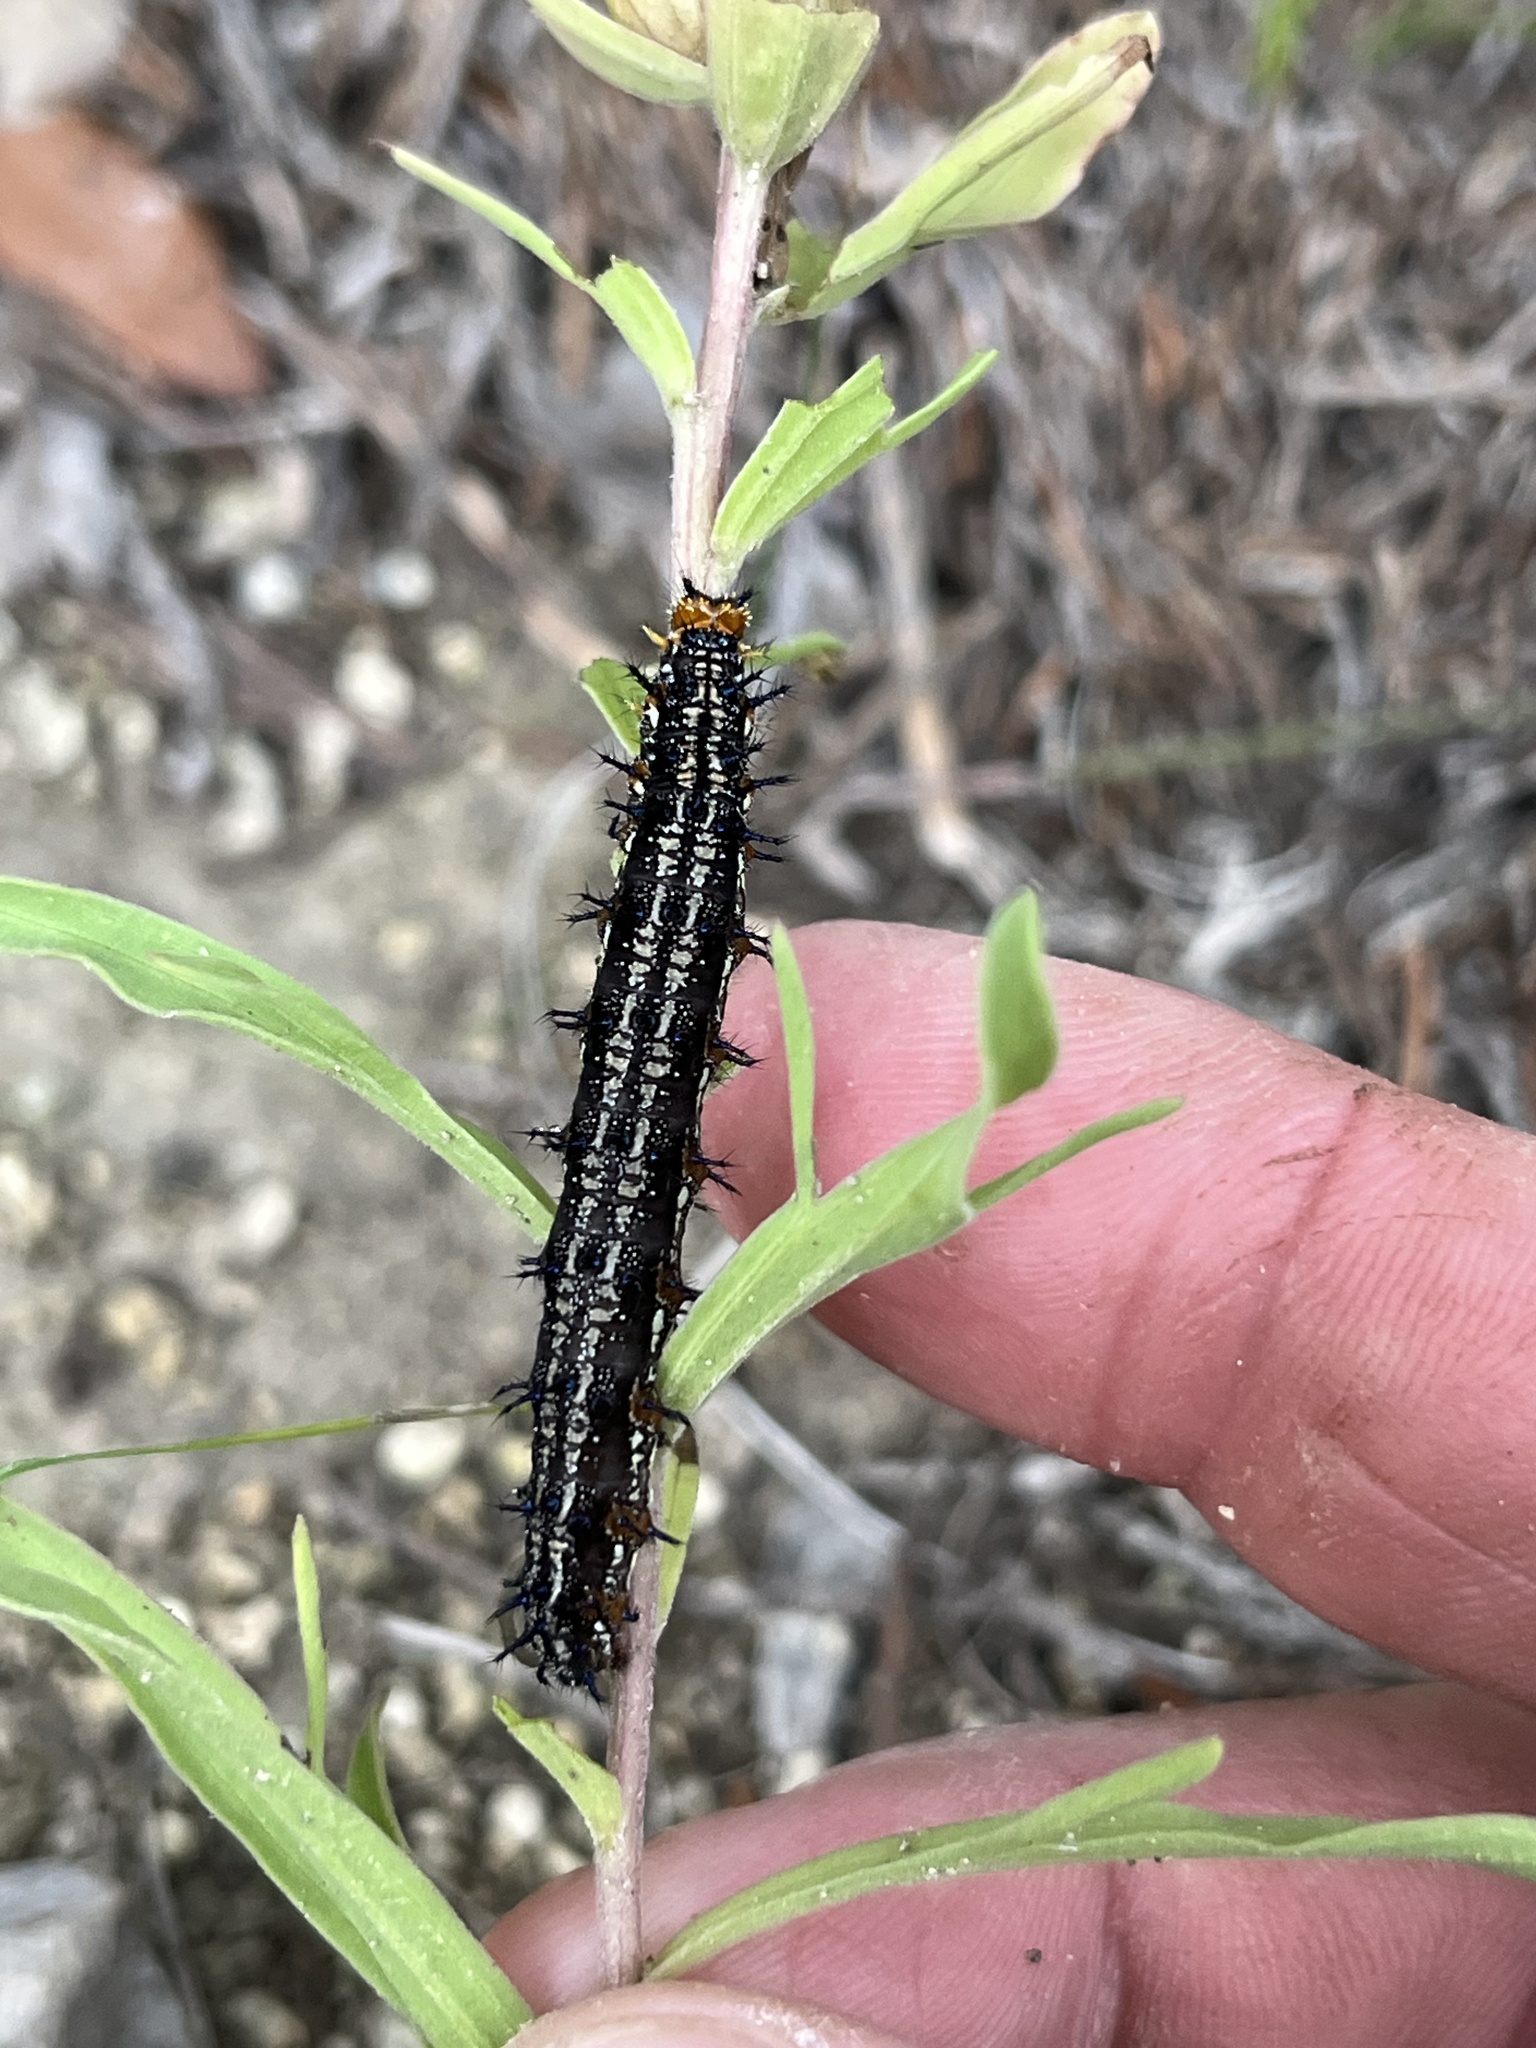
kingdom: Animalia
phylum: Arthropoda
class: Insecta
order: Lepidoptera
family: Nymphalidae
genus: Junonia
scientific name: Junonia coenia
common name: Common buckeye
